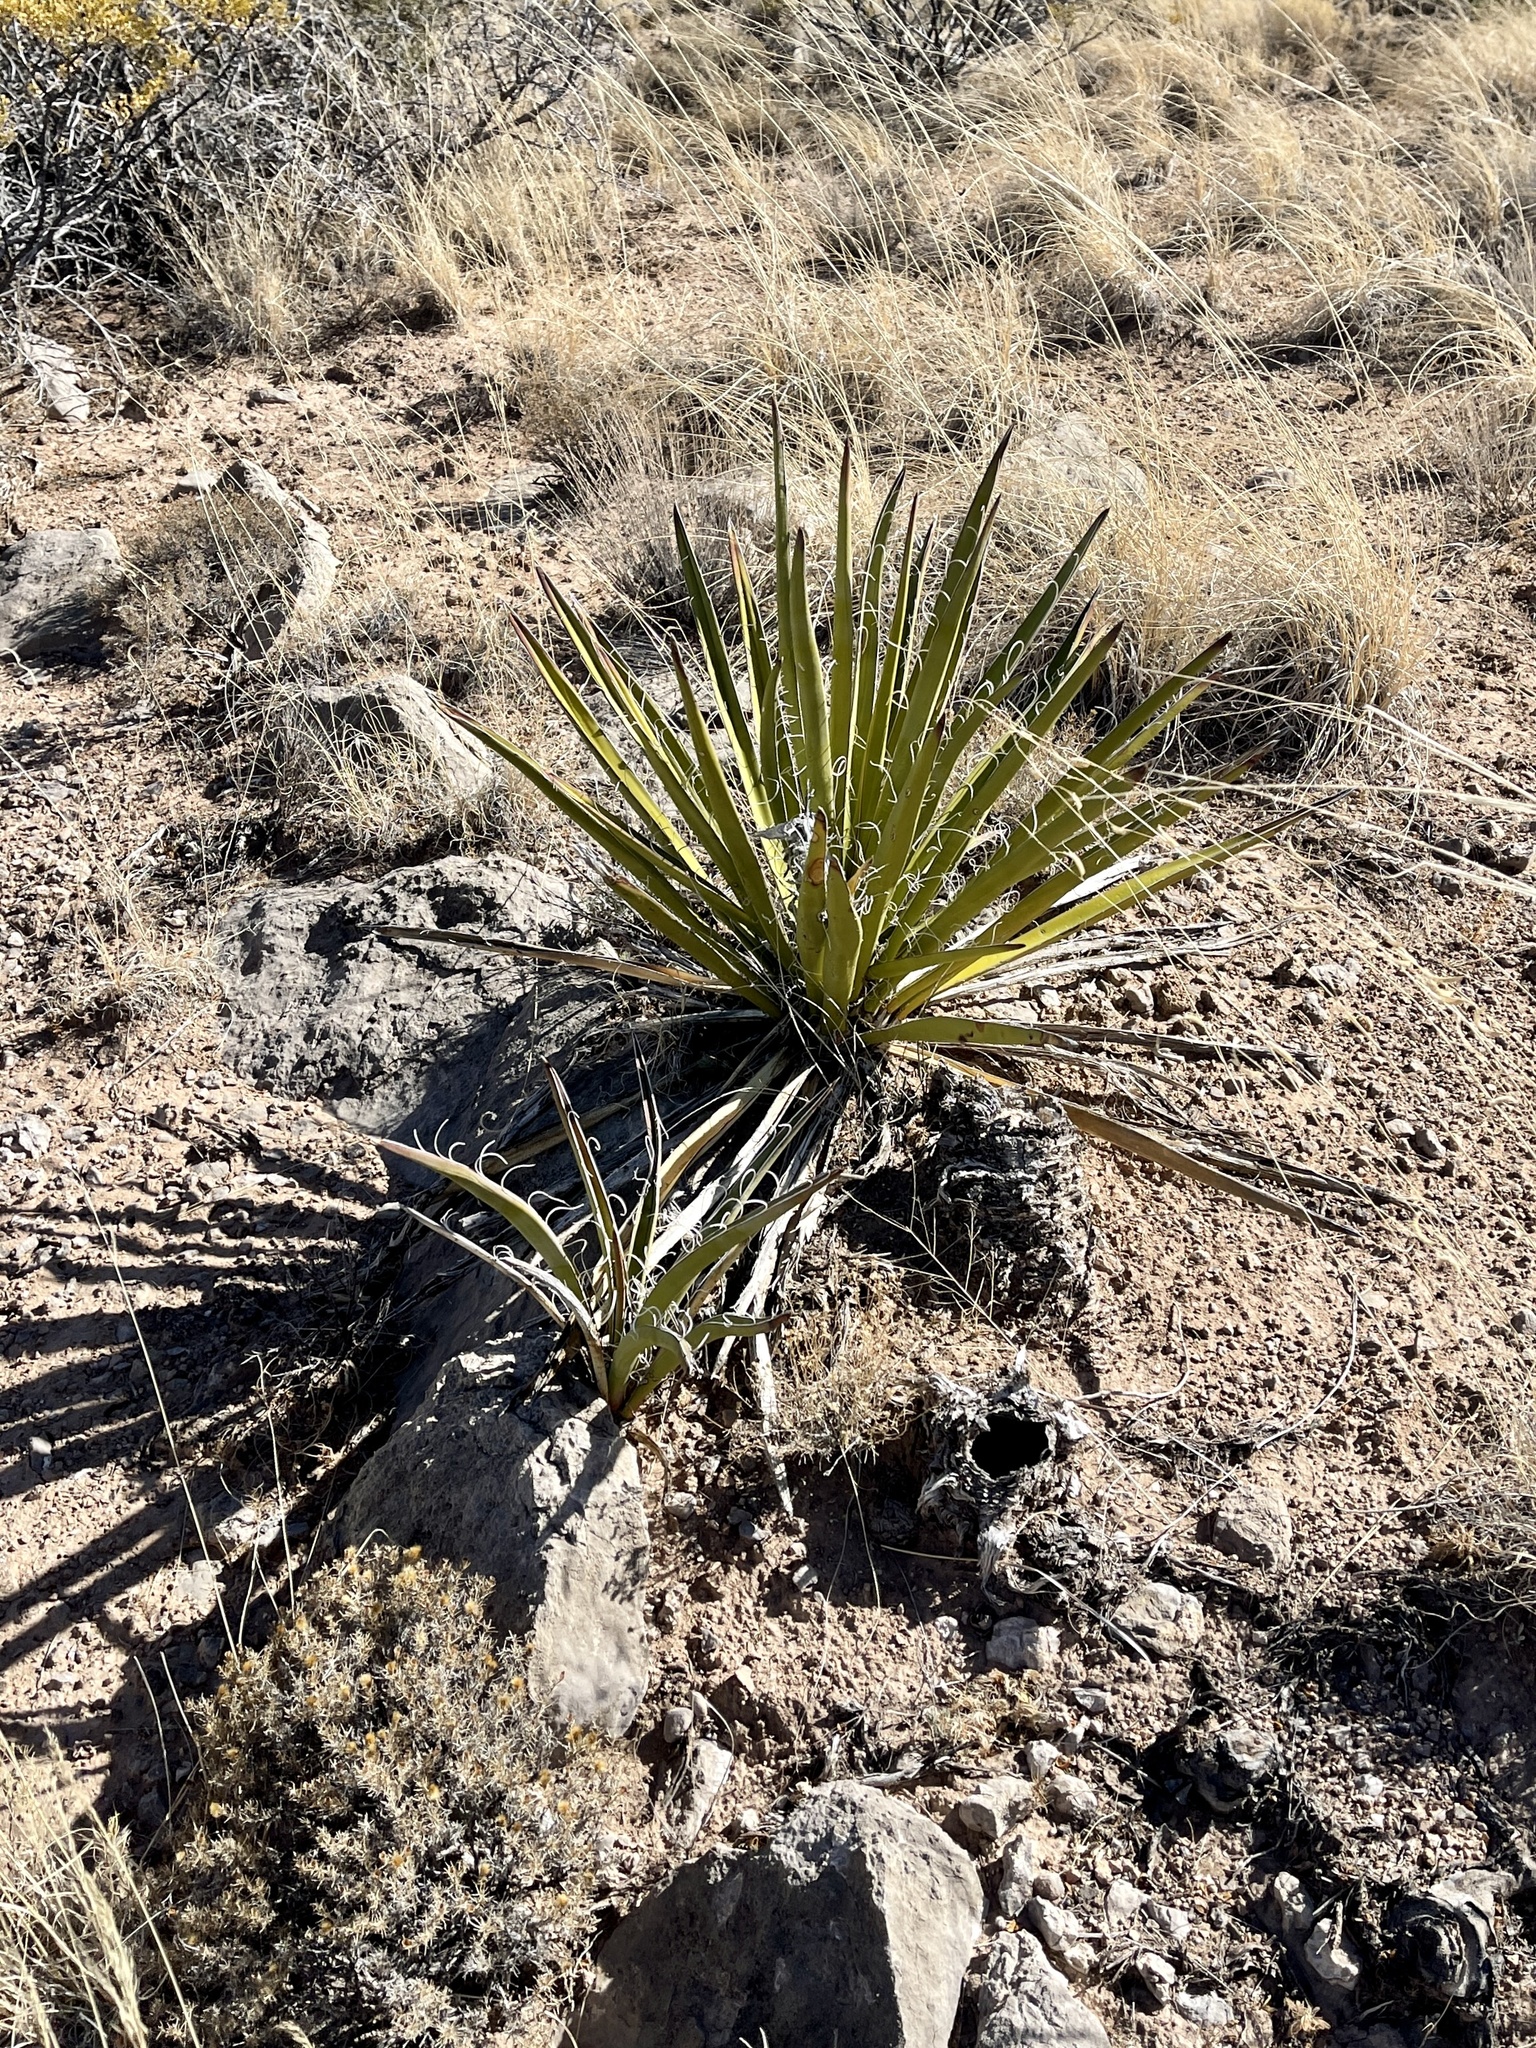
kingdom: Plantae
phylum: Tracheophyta
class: Liliopsida
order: Asparagales
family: Asparagaceae
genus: Yucca
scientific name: Yucca baccata
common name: Banana yucca
